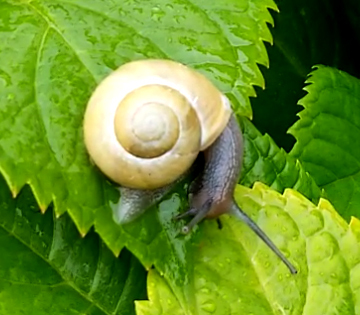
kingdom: Animalia
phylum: Mollusca
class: Gastropoda
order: Stylommatophora
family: Helicidae
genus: Cepaea
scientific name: Cepaea hortensis
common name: White-lip gardensnail
